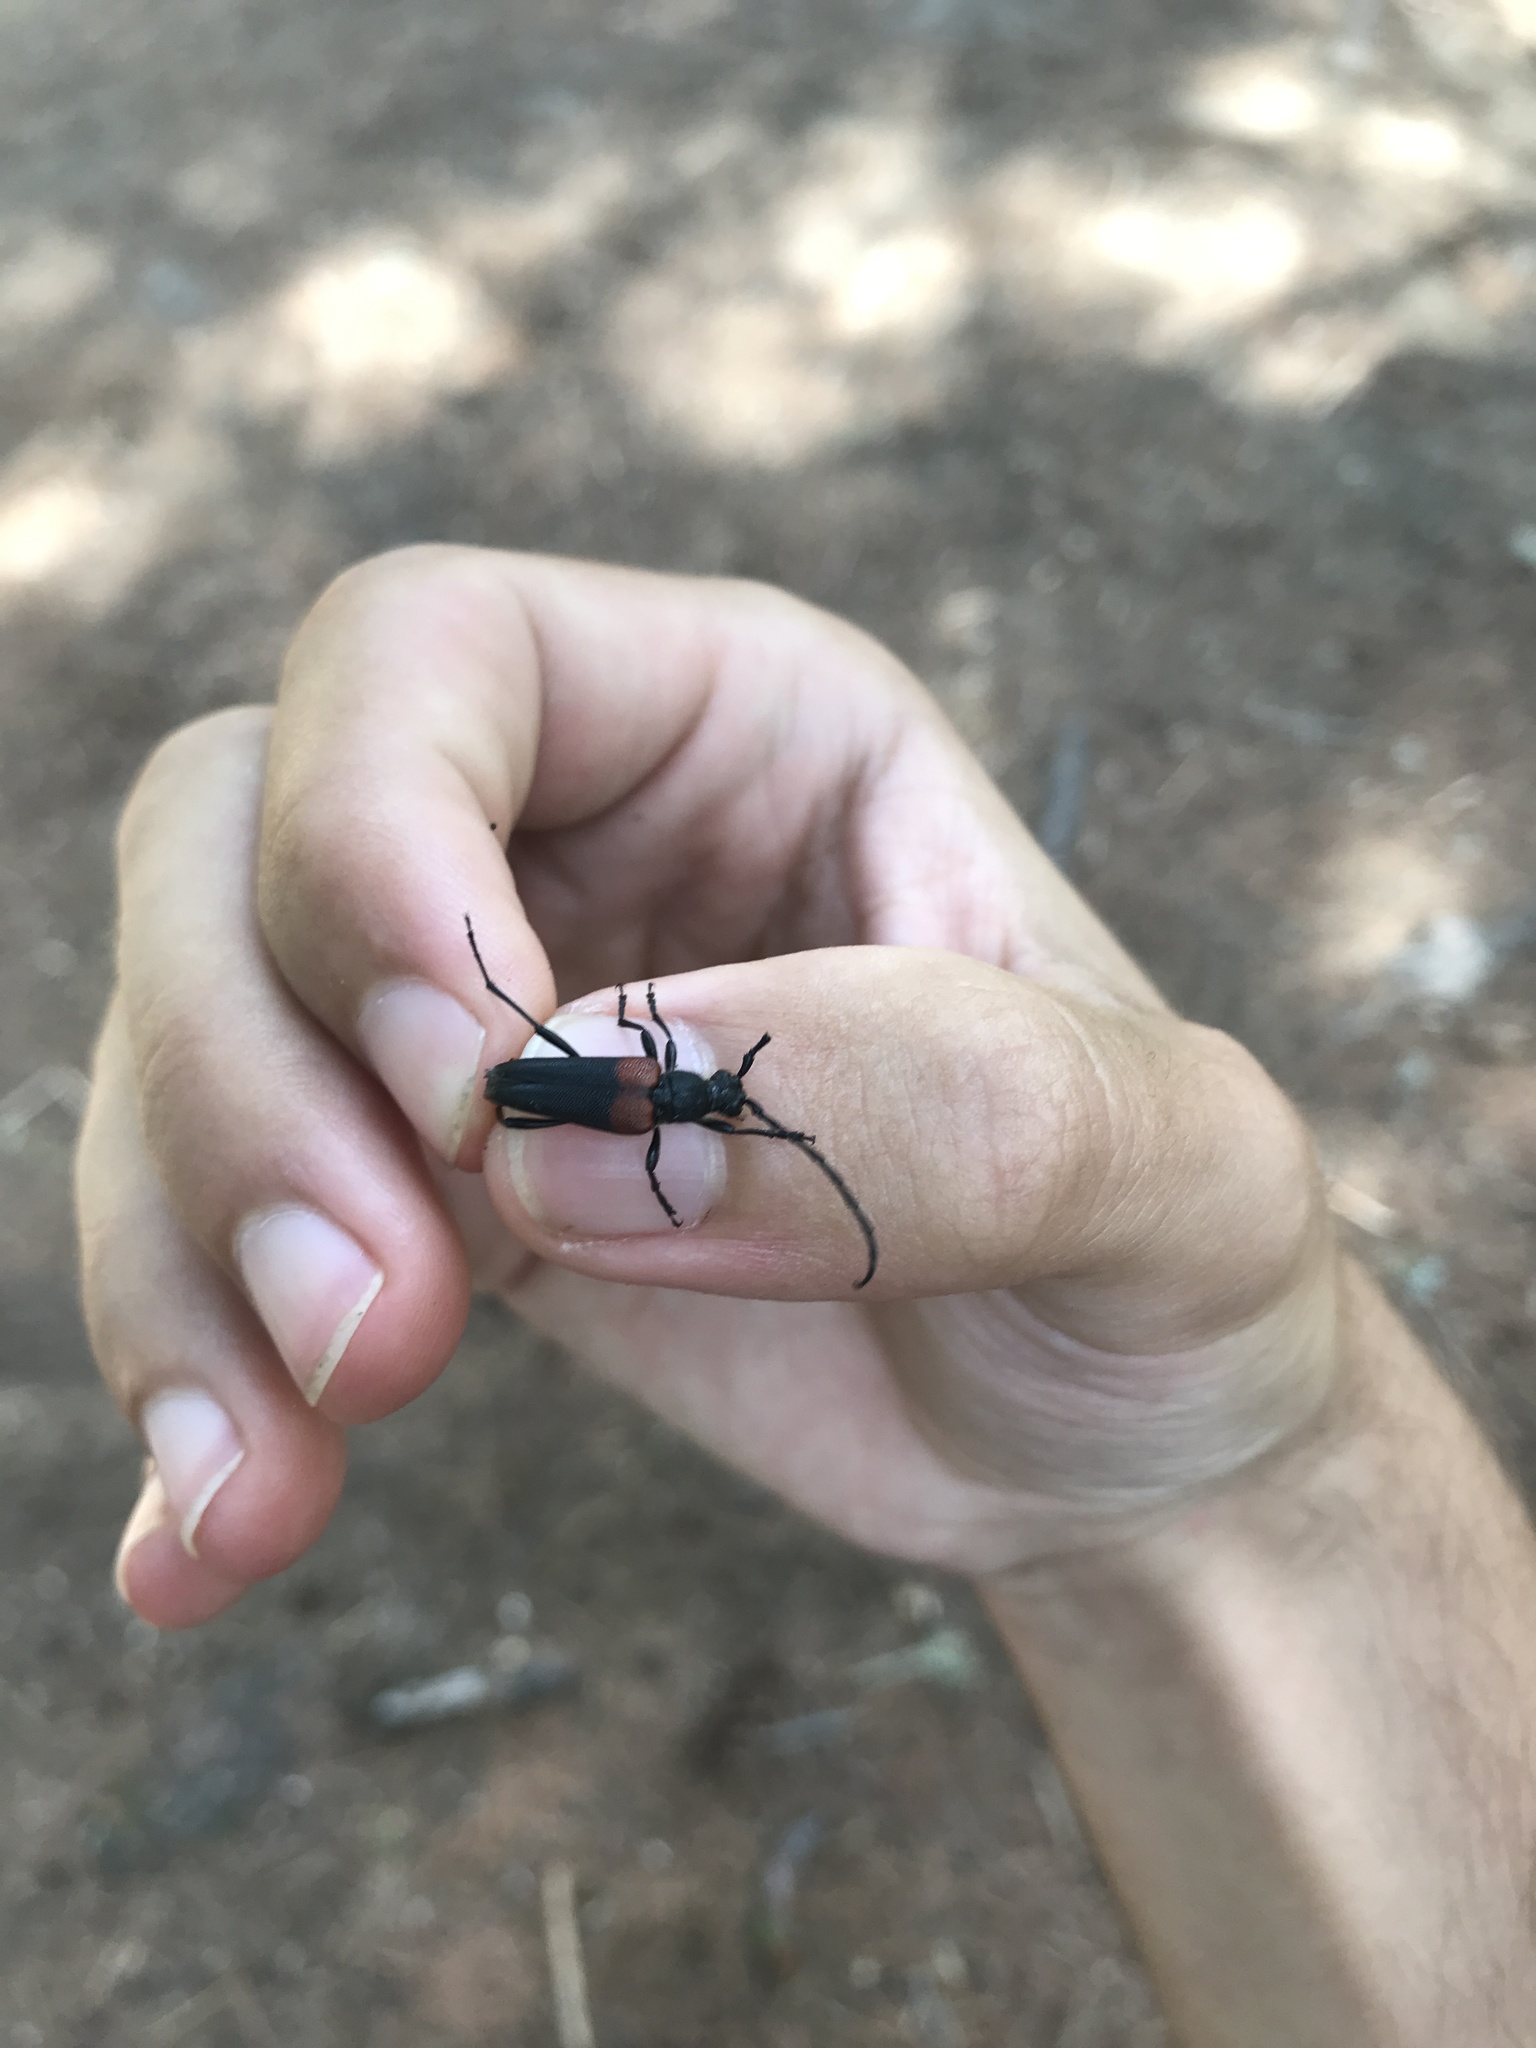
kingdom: Animalia
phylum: Arthropoda
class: Insecta
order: Coleoptera
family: Cerambycidae
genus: Stictoleptura
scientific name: Stictoleptura canadensis
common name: Red-shouldered pine borer
